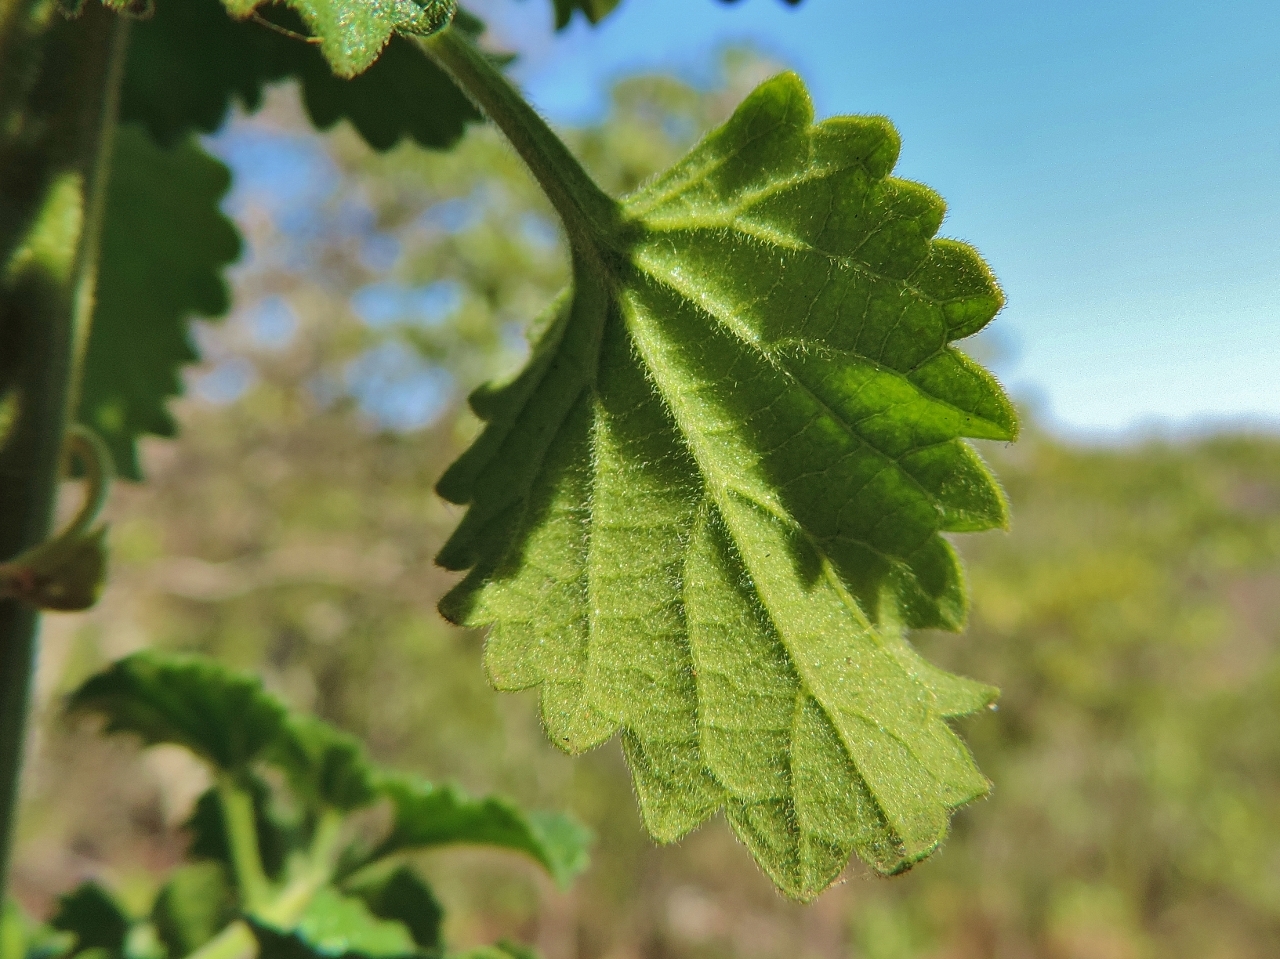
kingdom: Plantae
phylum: Tracheophyta
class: Magnoliopsida
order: Lamiales
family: Lamiaceae
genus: Leonotis
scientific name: Leonotis ocymifolia
